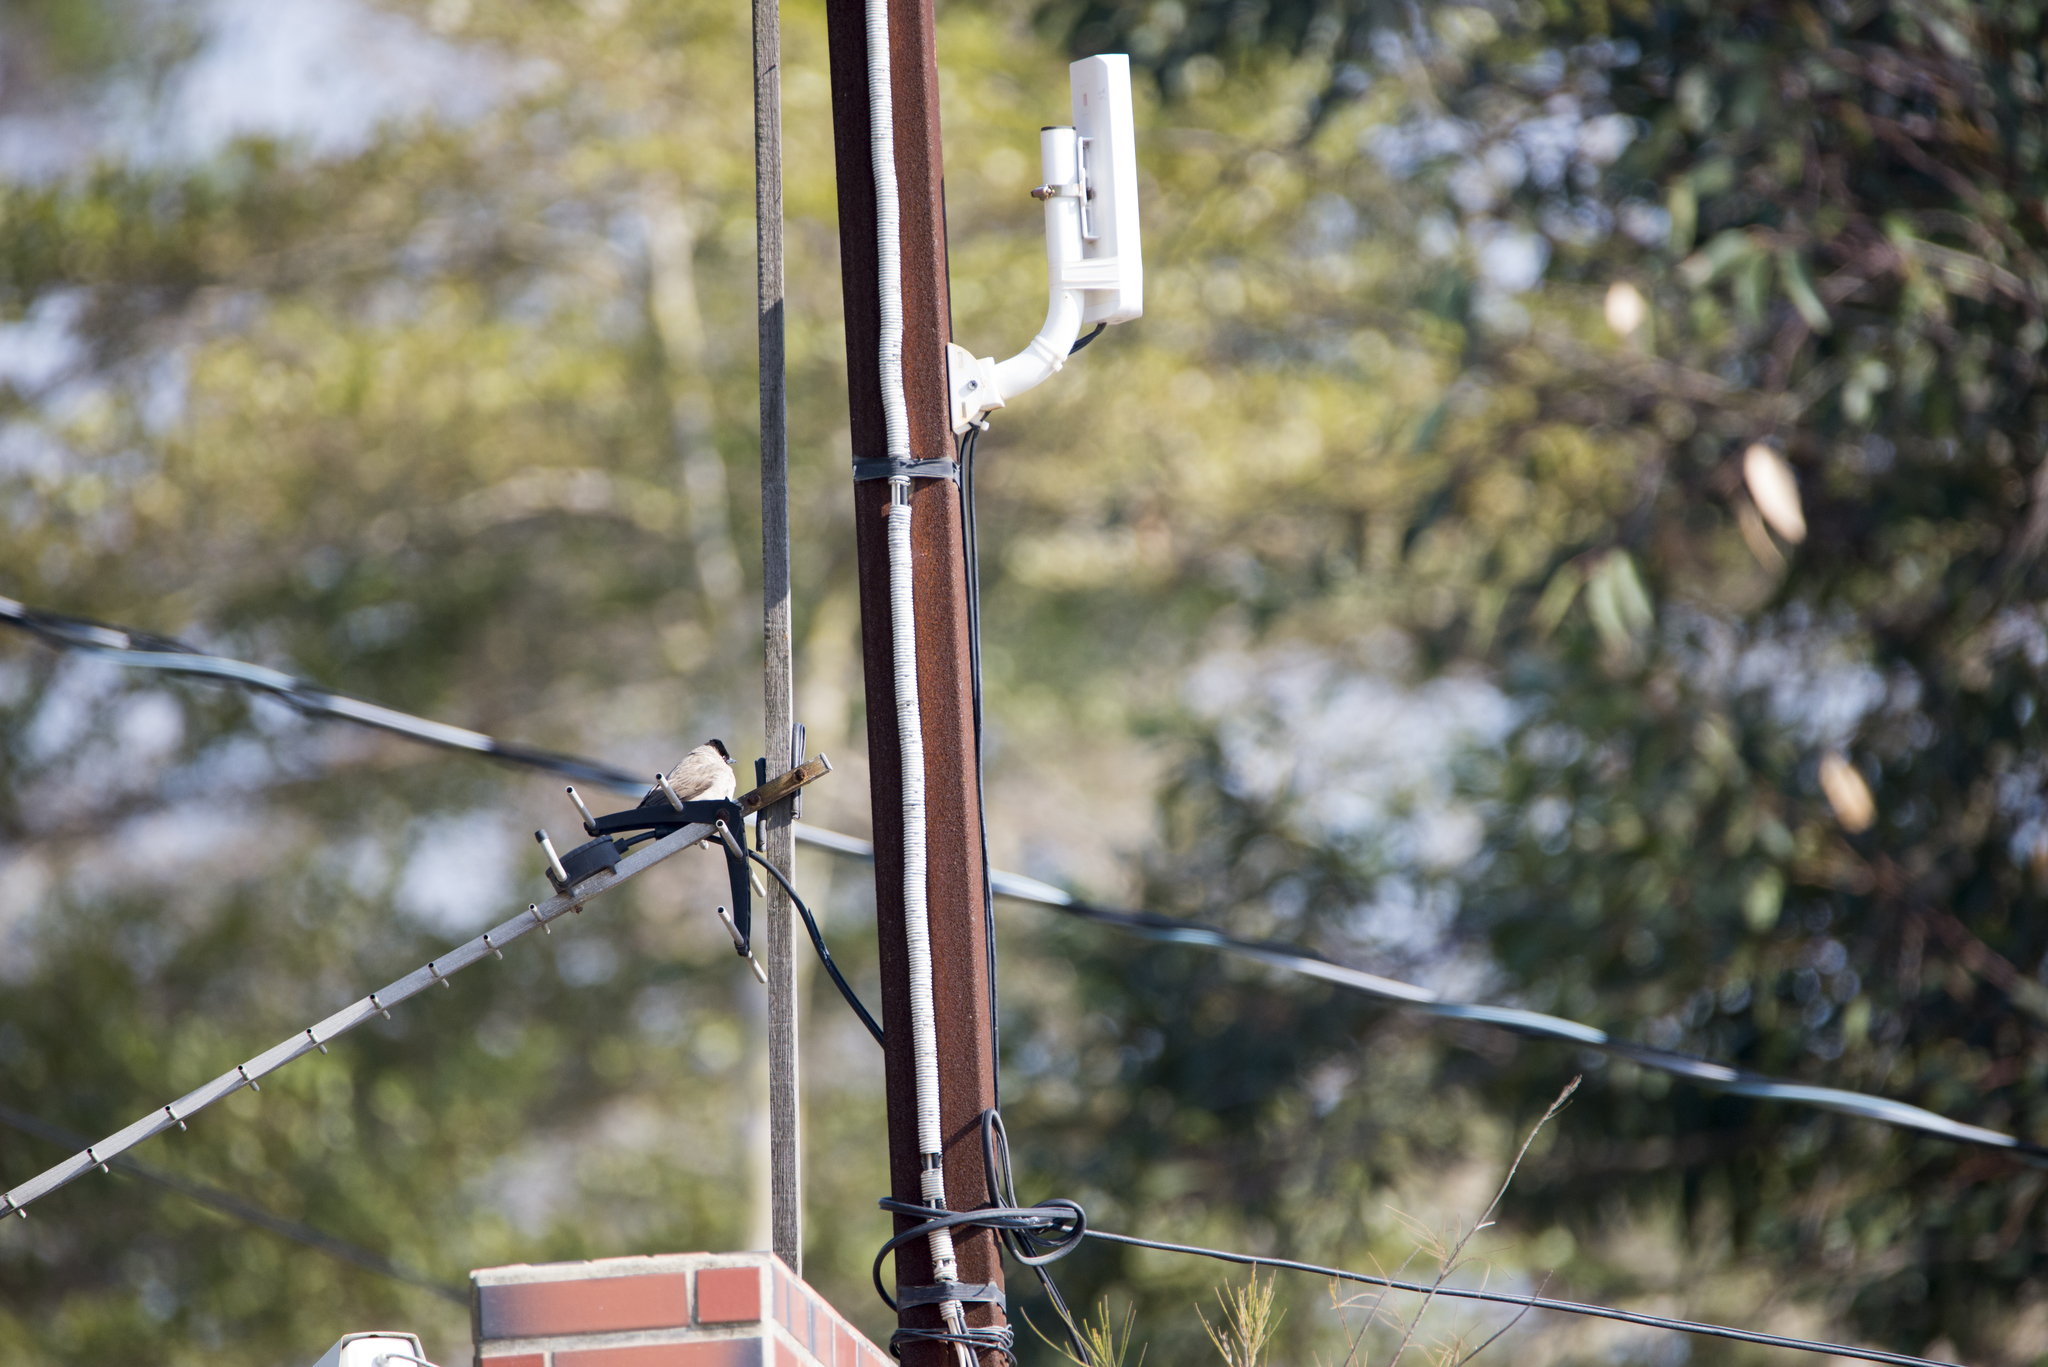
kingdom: Animalia
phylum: Chordata
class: Aves
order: Passeriformes
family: Pycnonotidae
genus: Pycnonotus
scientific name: Pycnonotus aurigaster
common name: Sooty-headed bulbul
